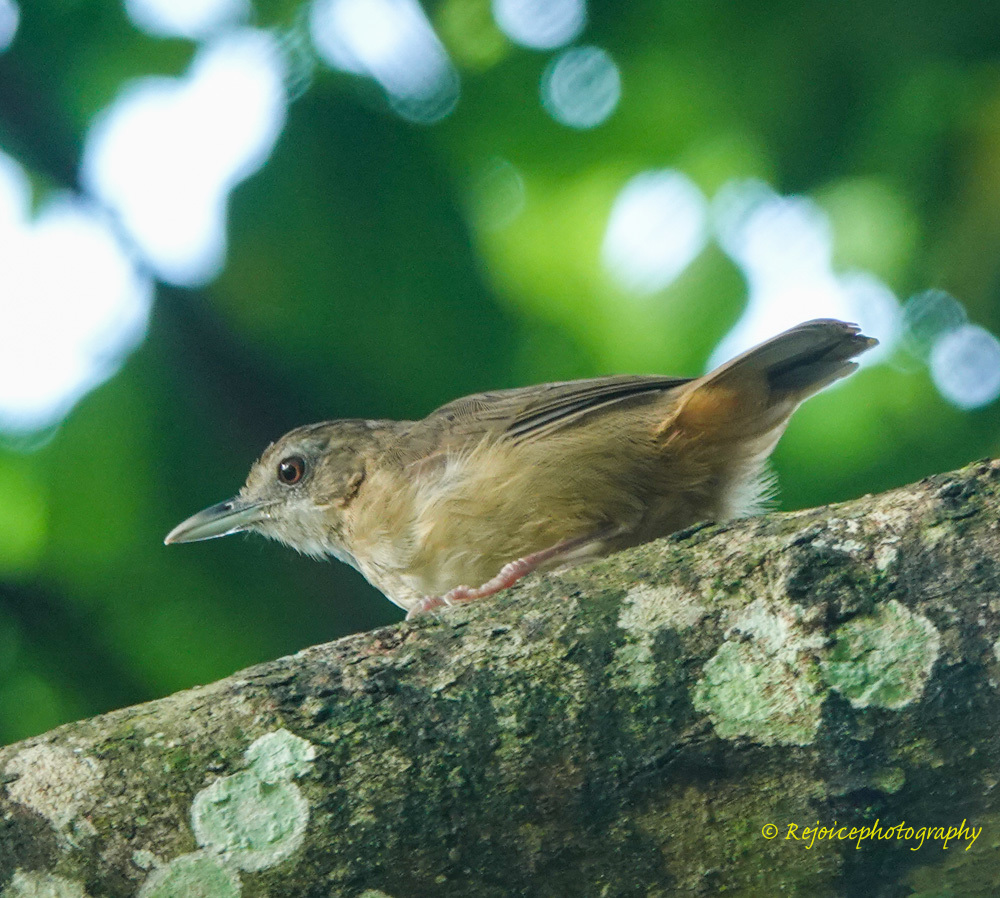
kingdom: Animalia
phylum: Chordata
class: Aves
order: Passeriformes
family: Pellorneidae
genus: Malacocincla
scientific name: Malacocincla abbotti
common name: Abbott's babbler
